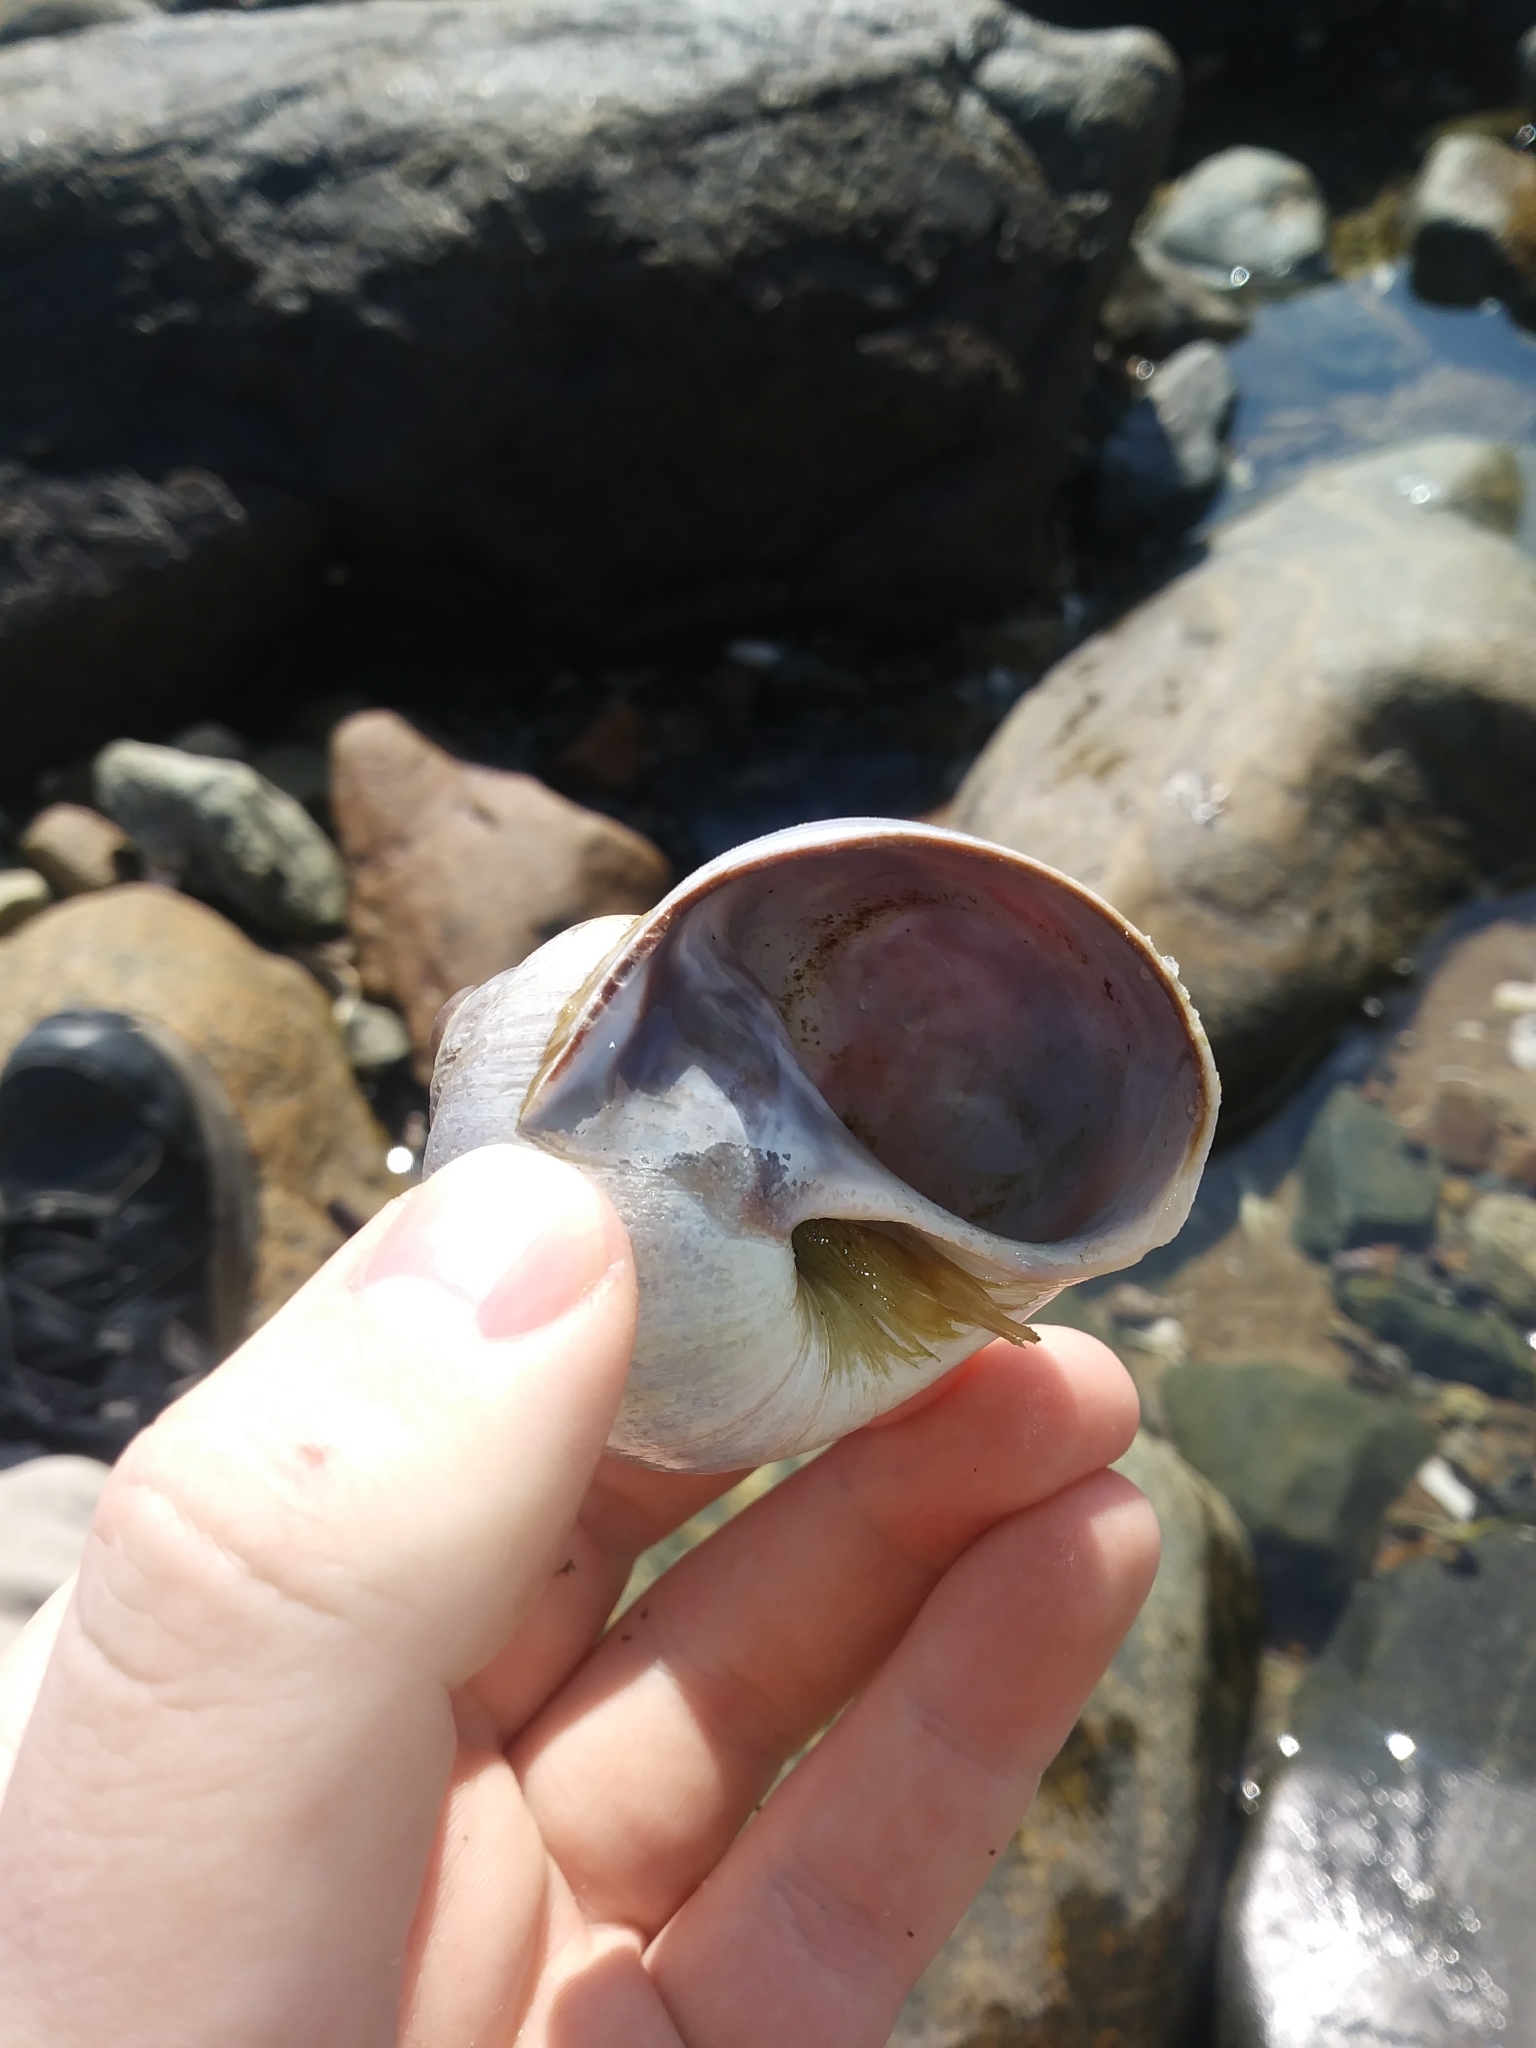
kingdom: Animalia
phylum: Mollusca
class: Gastropoda
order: Littorinimorpha
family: Naticidae
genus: Euspira
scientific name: Euspira heros
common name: Common northern moonsnail
